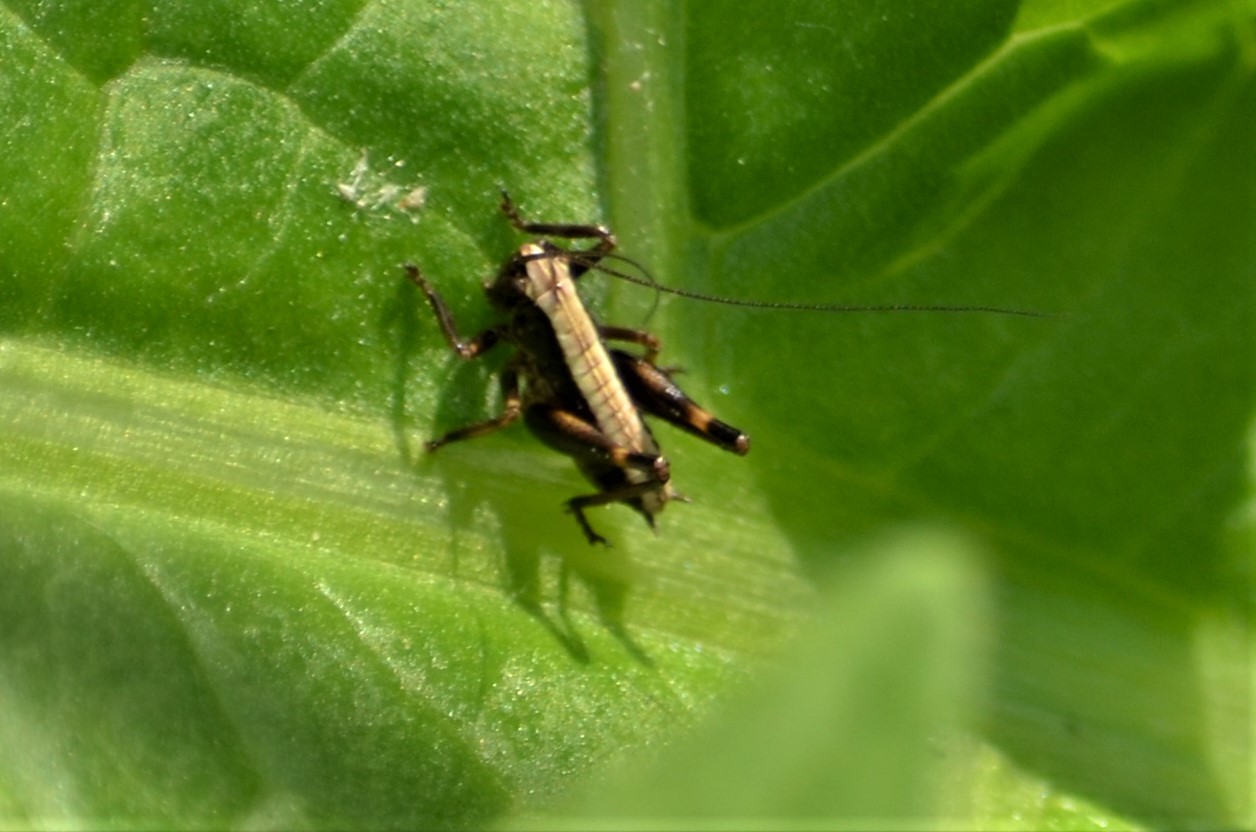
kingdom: Animalia
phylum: Arthropoda
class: Insecta
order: Orthoptera
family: Tettigoniidae
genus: Pholidoptera
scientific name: Pholidoptera griseoaptera
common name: Dark bush-cricket
